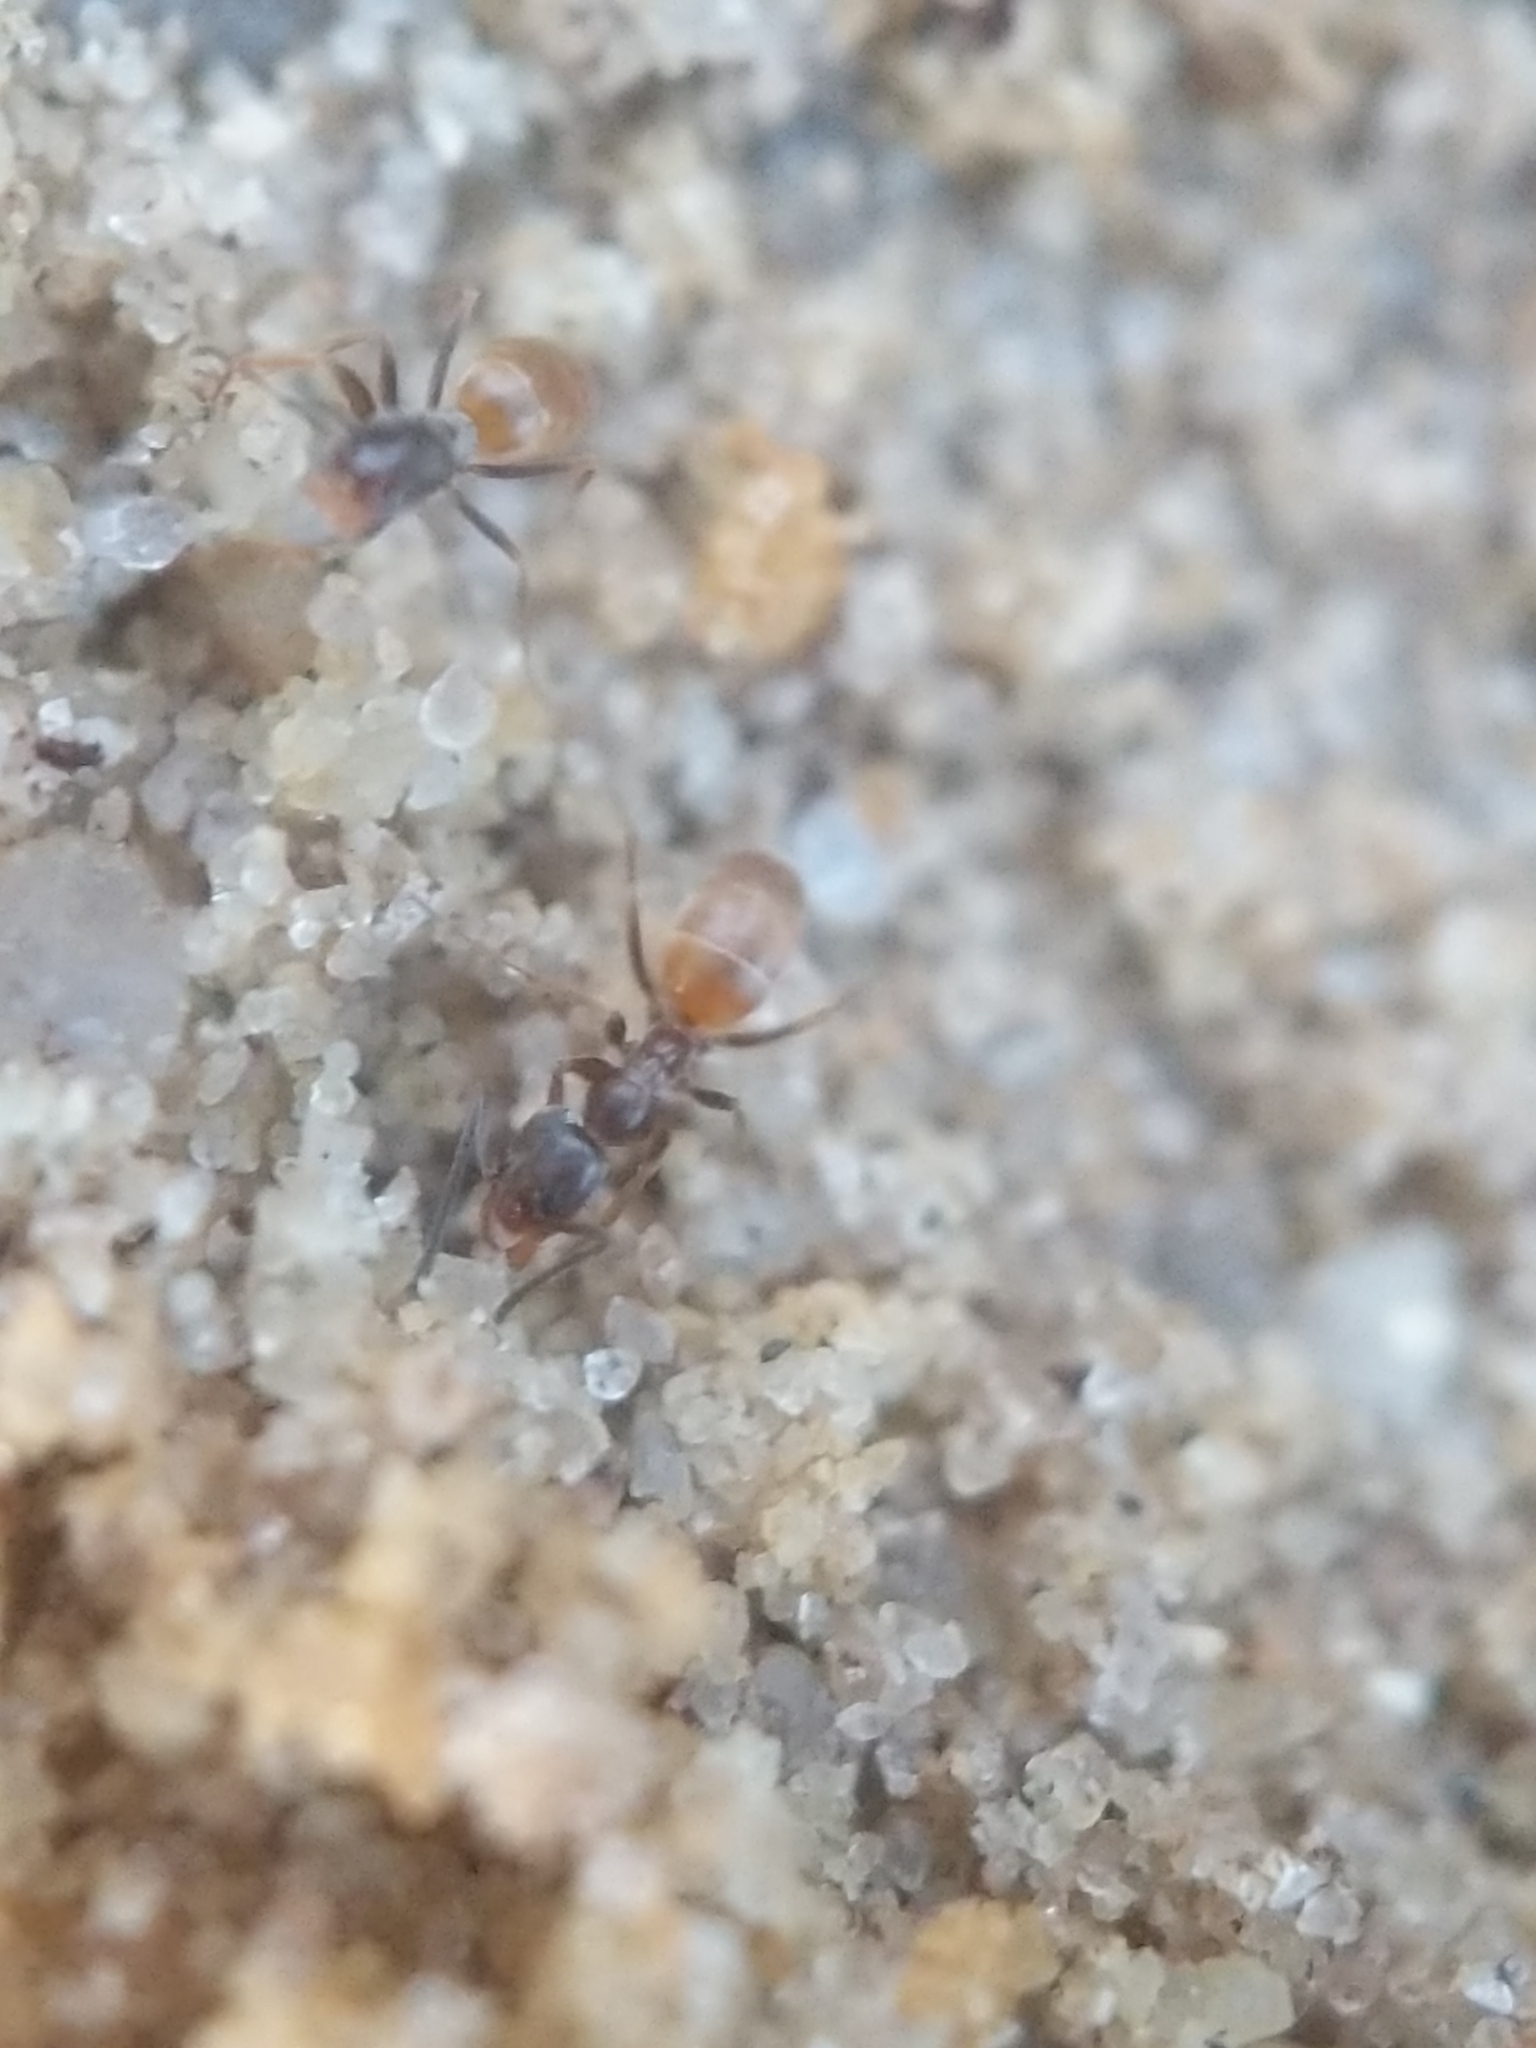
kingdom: Animalia
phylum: Arthropoda
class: Insecta
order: Hymenoptera
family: Formicidae
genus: Forelius
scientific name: Forelius pruinosus
